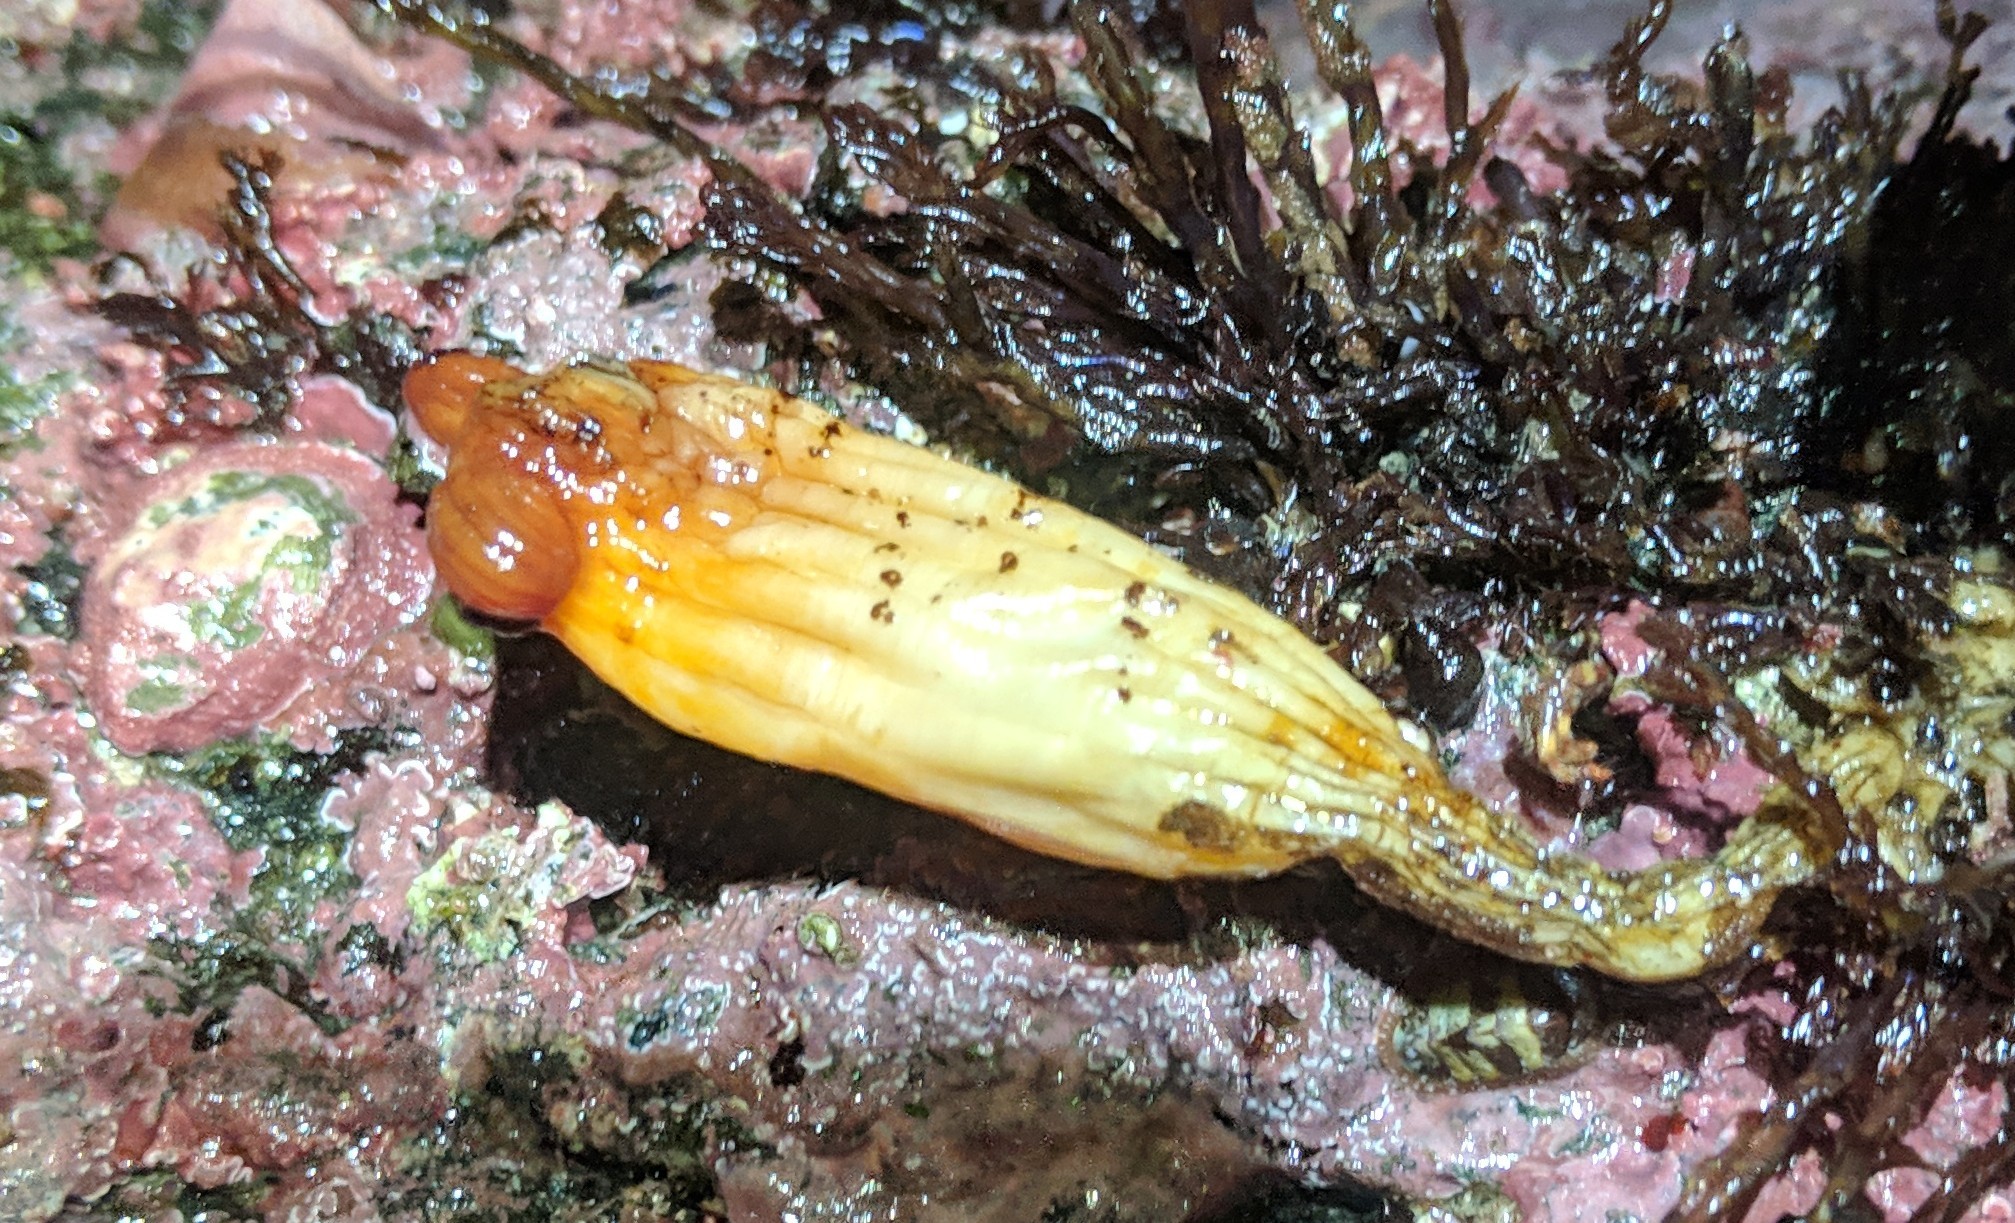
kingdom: Animalia
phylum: Chordata
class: Ascidiacea
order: Stolidobranchia
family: Styelidae
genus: Styela
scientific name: Styela montereyensis
